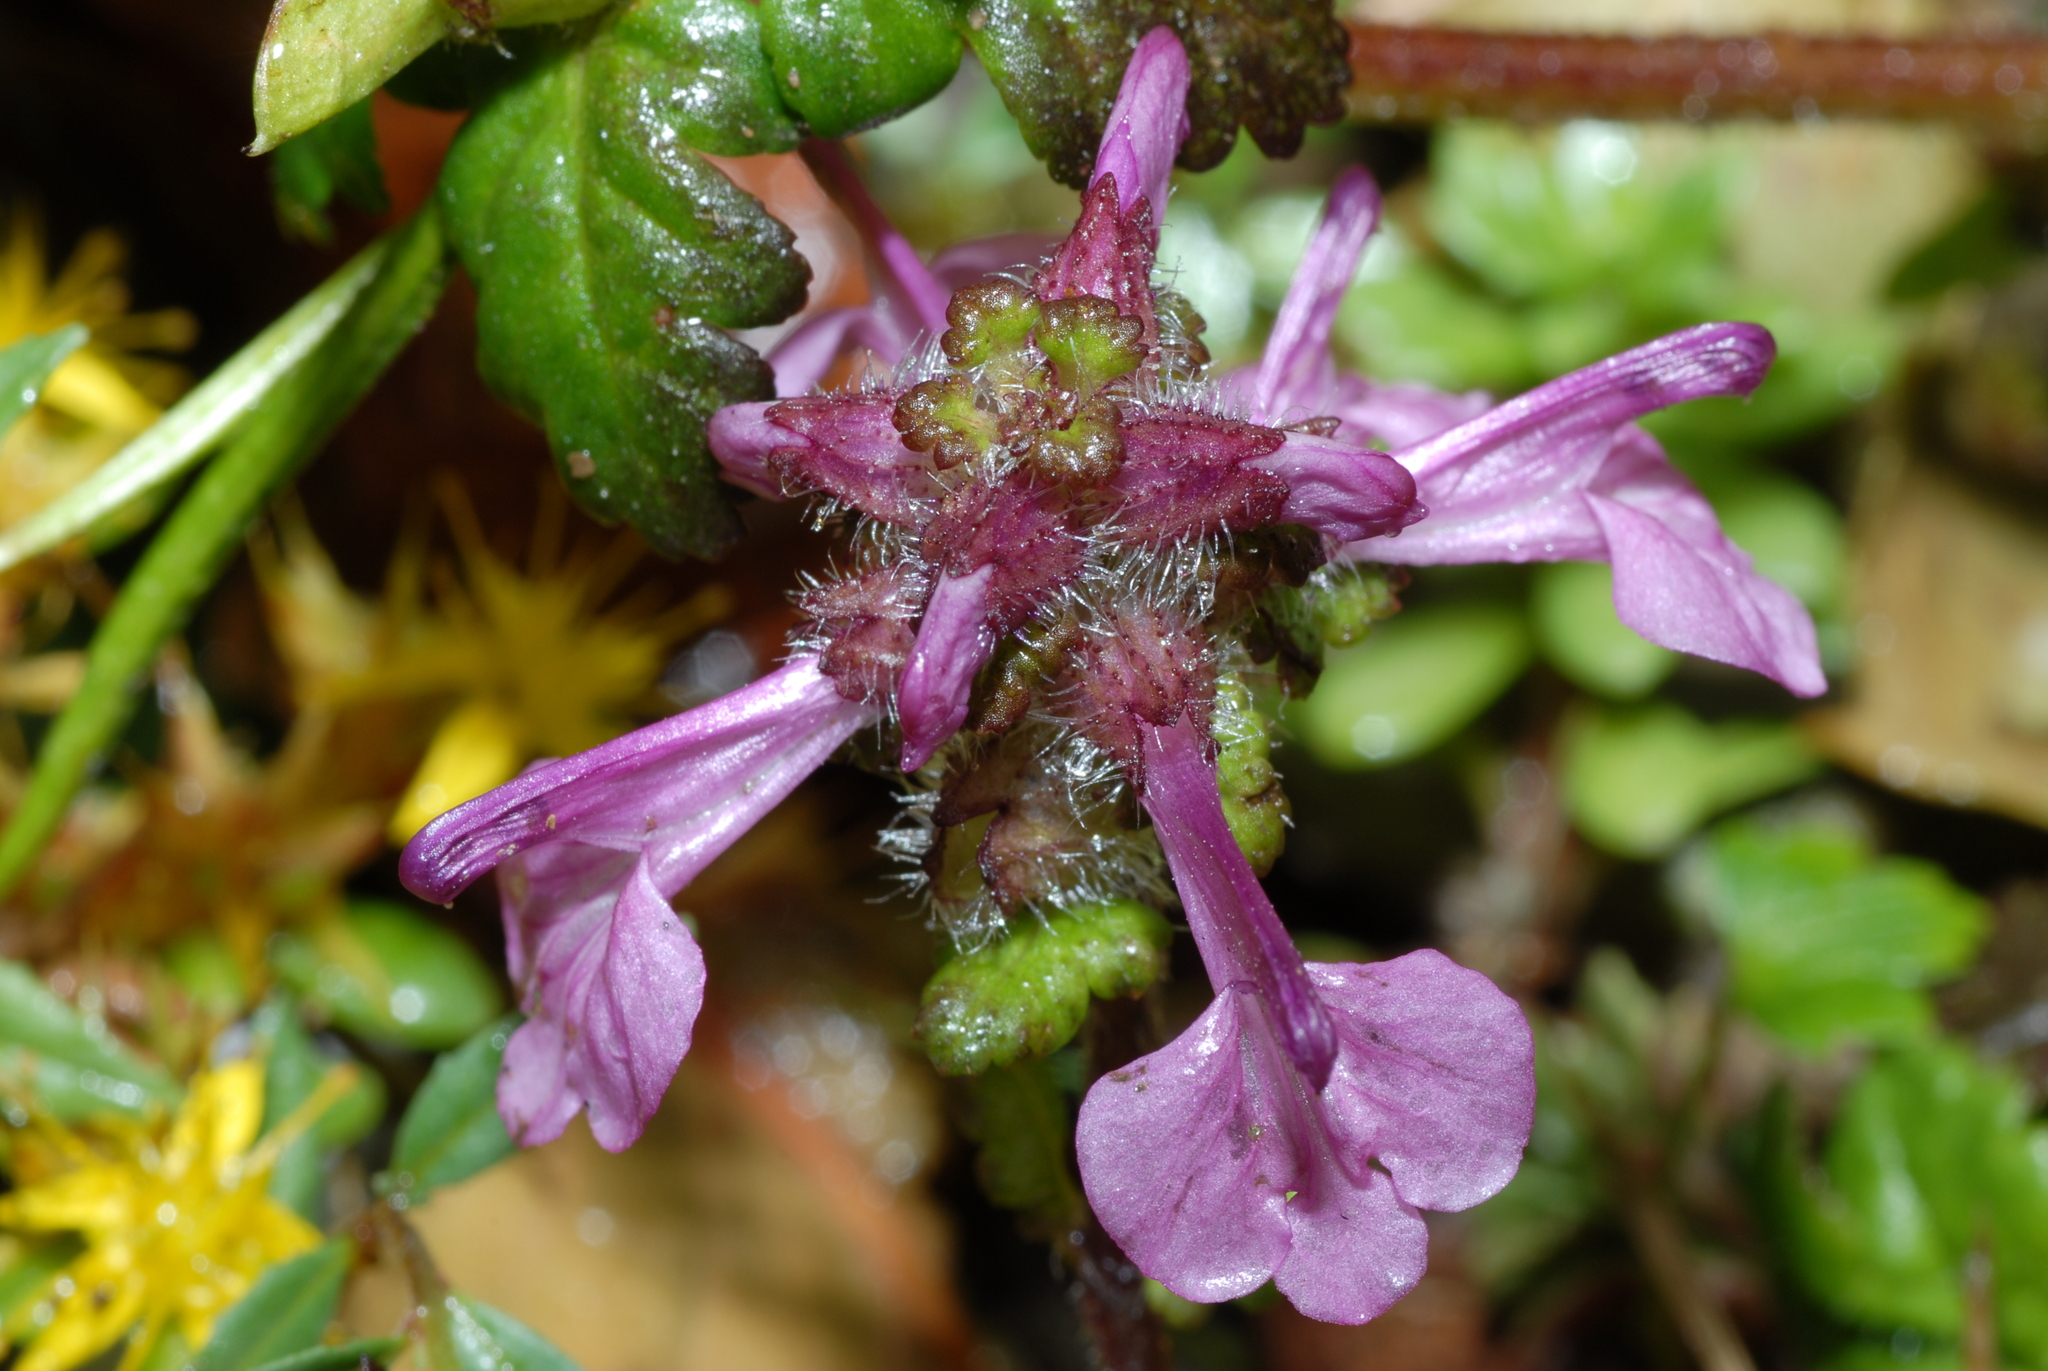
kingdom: Plantae
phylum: Tracheophyta
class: Magnoliopsida
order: Lamiales
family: Orobanchaceae
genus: Pedicularis
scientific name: Pedicularis refracta
